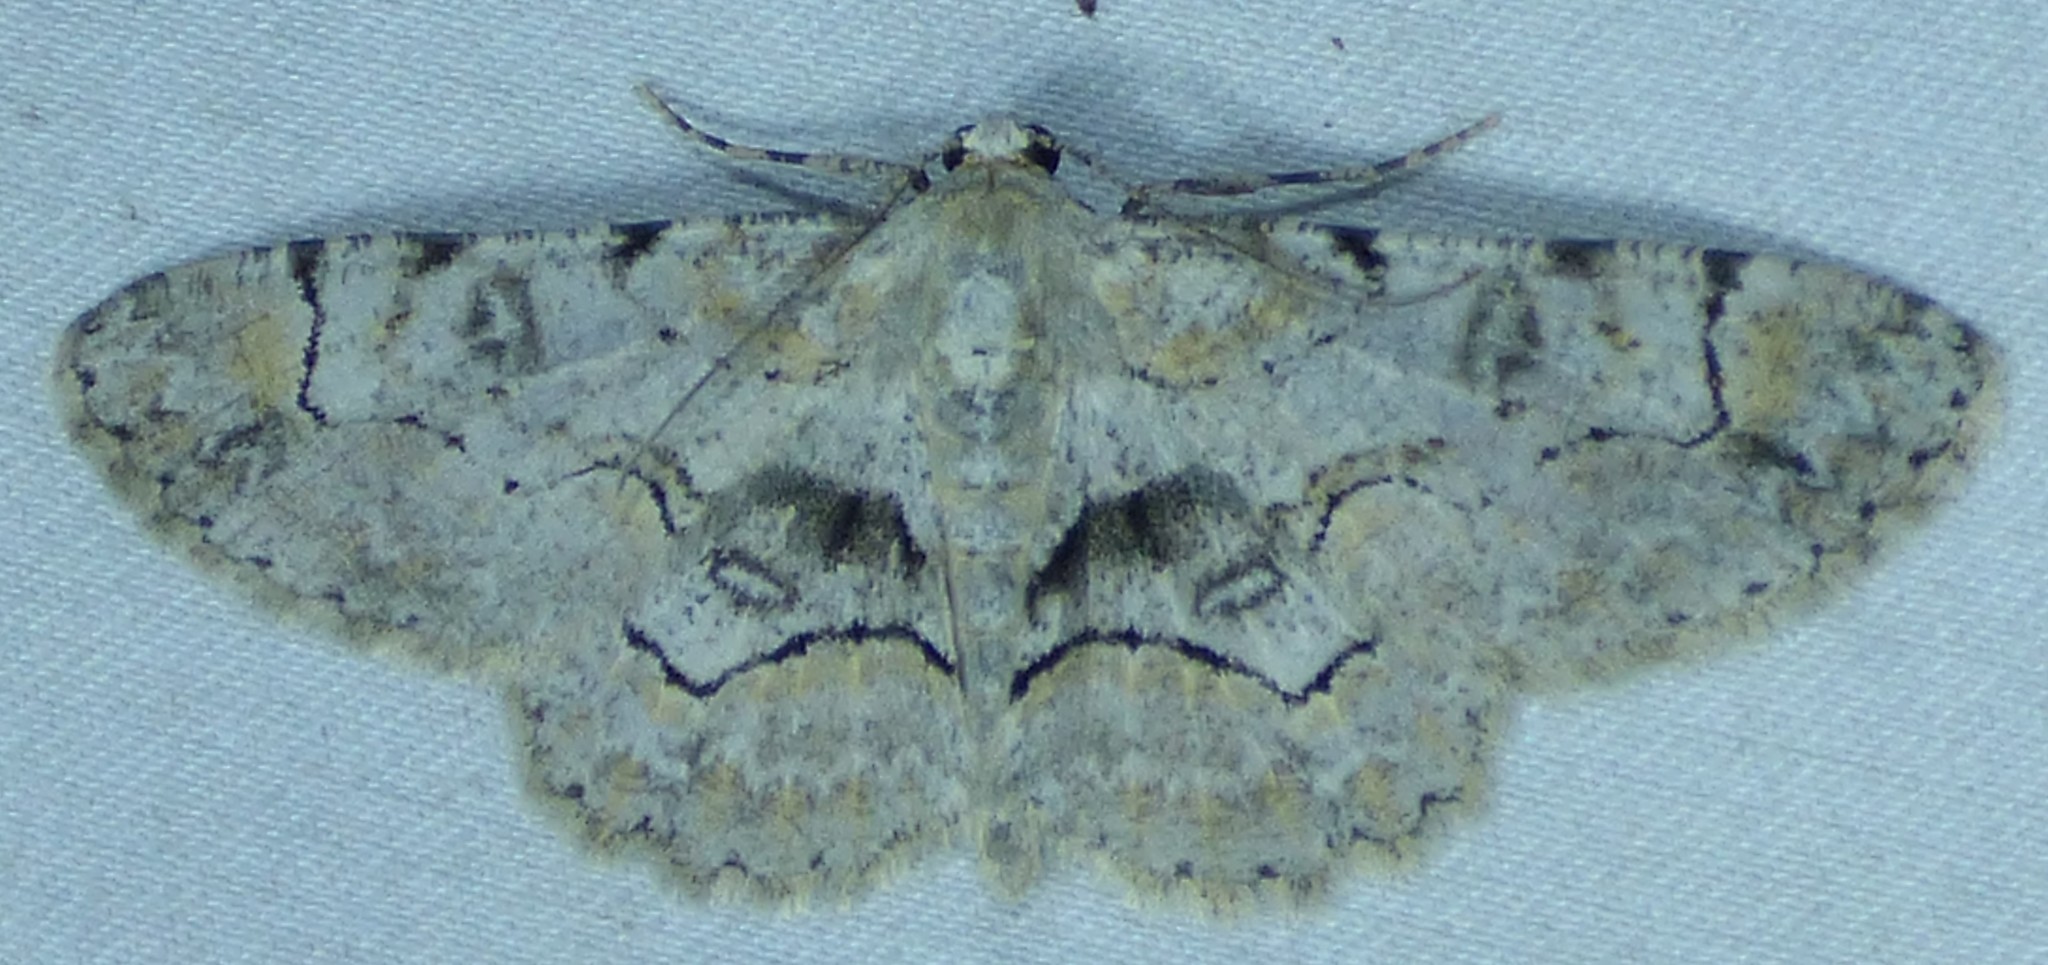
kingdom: Animalia
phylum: Arthropoda
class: Insecta
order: Lepidoptera
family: Geometridae
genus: Iridopsis
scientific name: Iridopsis larvaria
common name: Bent-line gray
